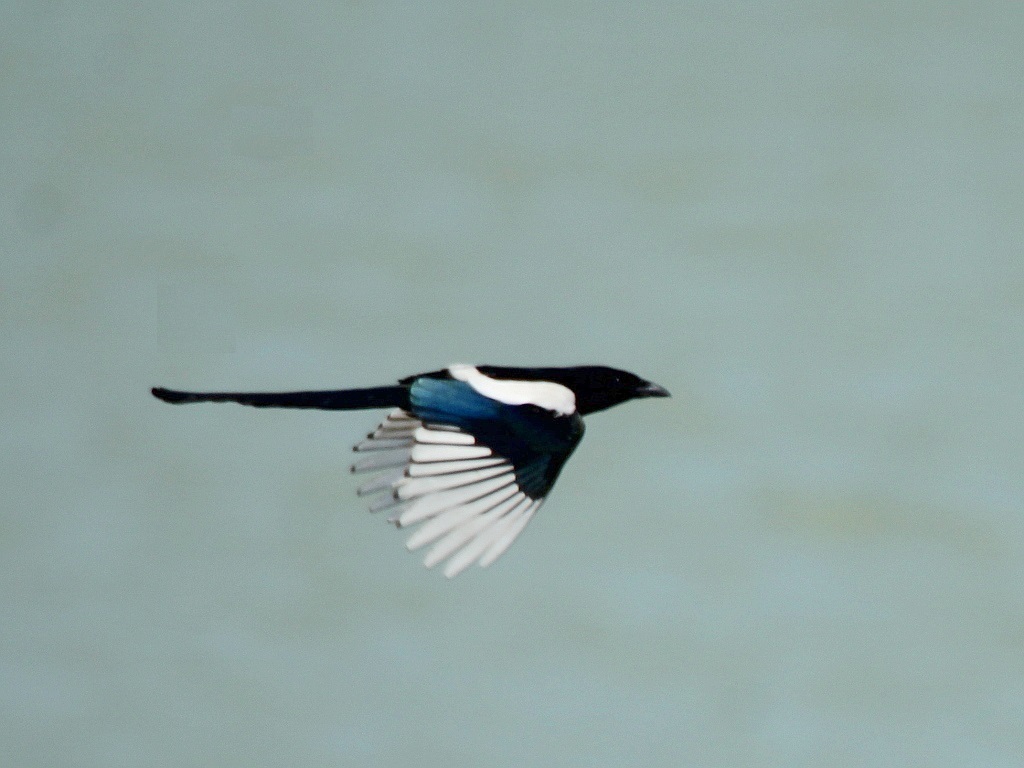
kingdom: Animalia
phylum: Chordata
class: Aves
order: Passeriformes
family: Corvidae
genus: Pica
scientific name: Pica pica
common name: Eurasian magpie
